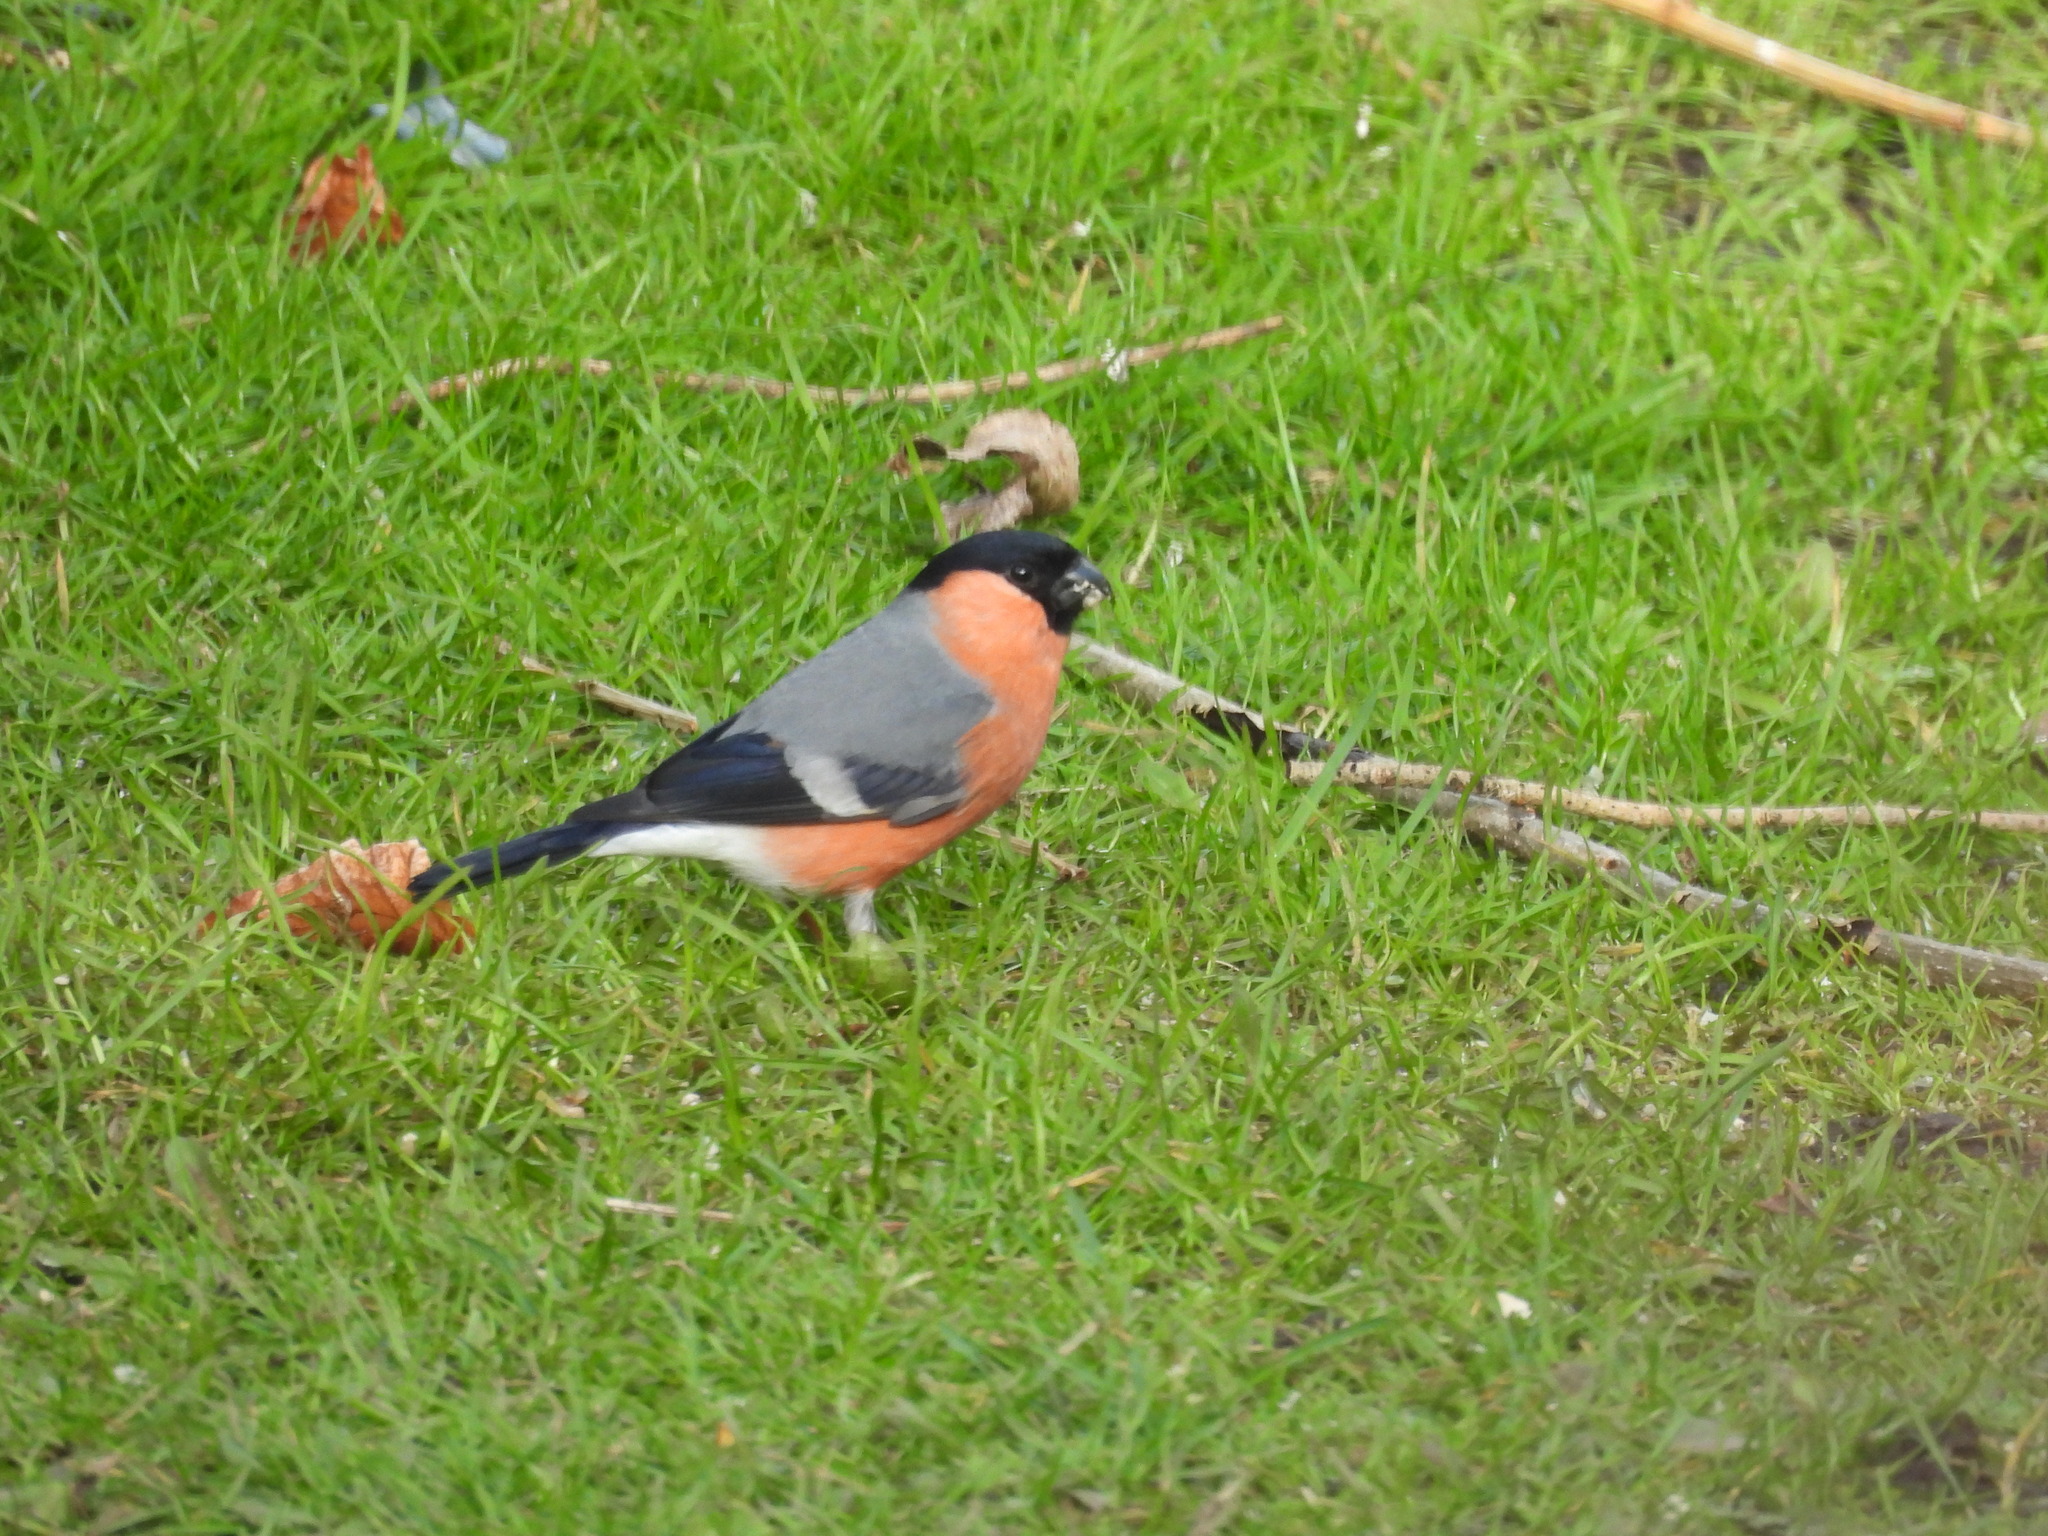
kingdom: Animalia
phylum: Chordata
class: Aves
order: Passeriformes
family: Fringillidae
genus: Pyrrhula
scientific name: Pyrrhula pyrrhula
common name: Eurasian bullfinch
